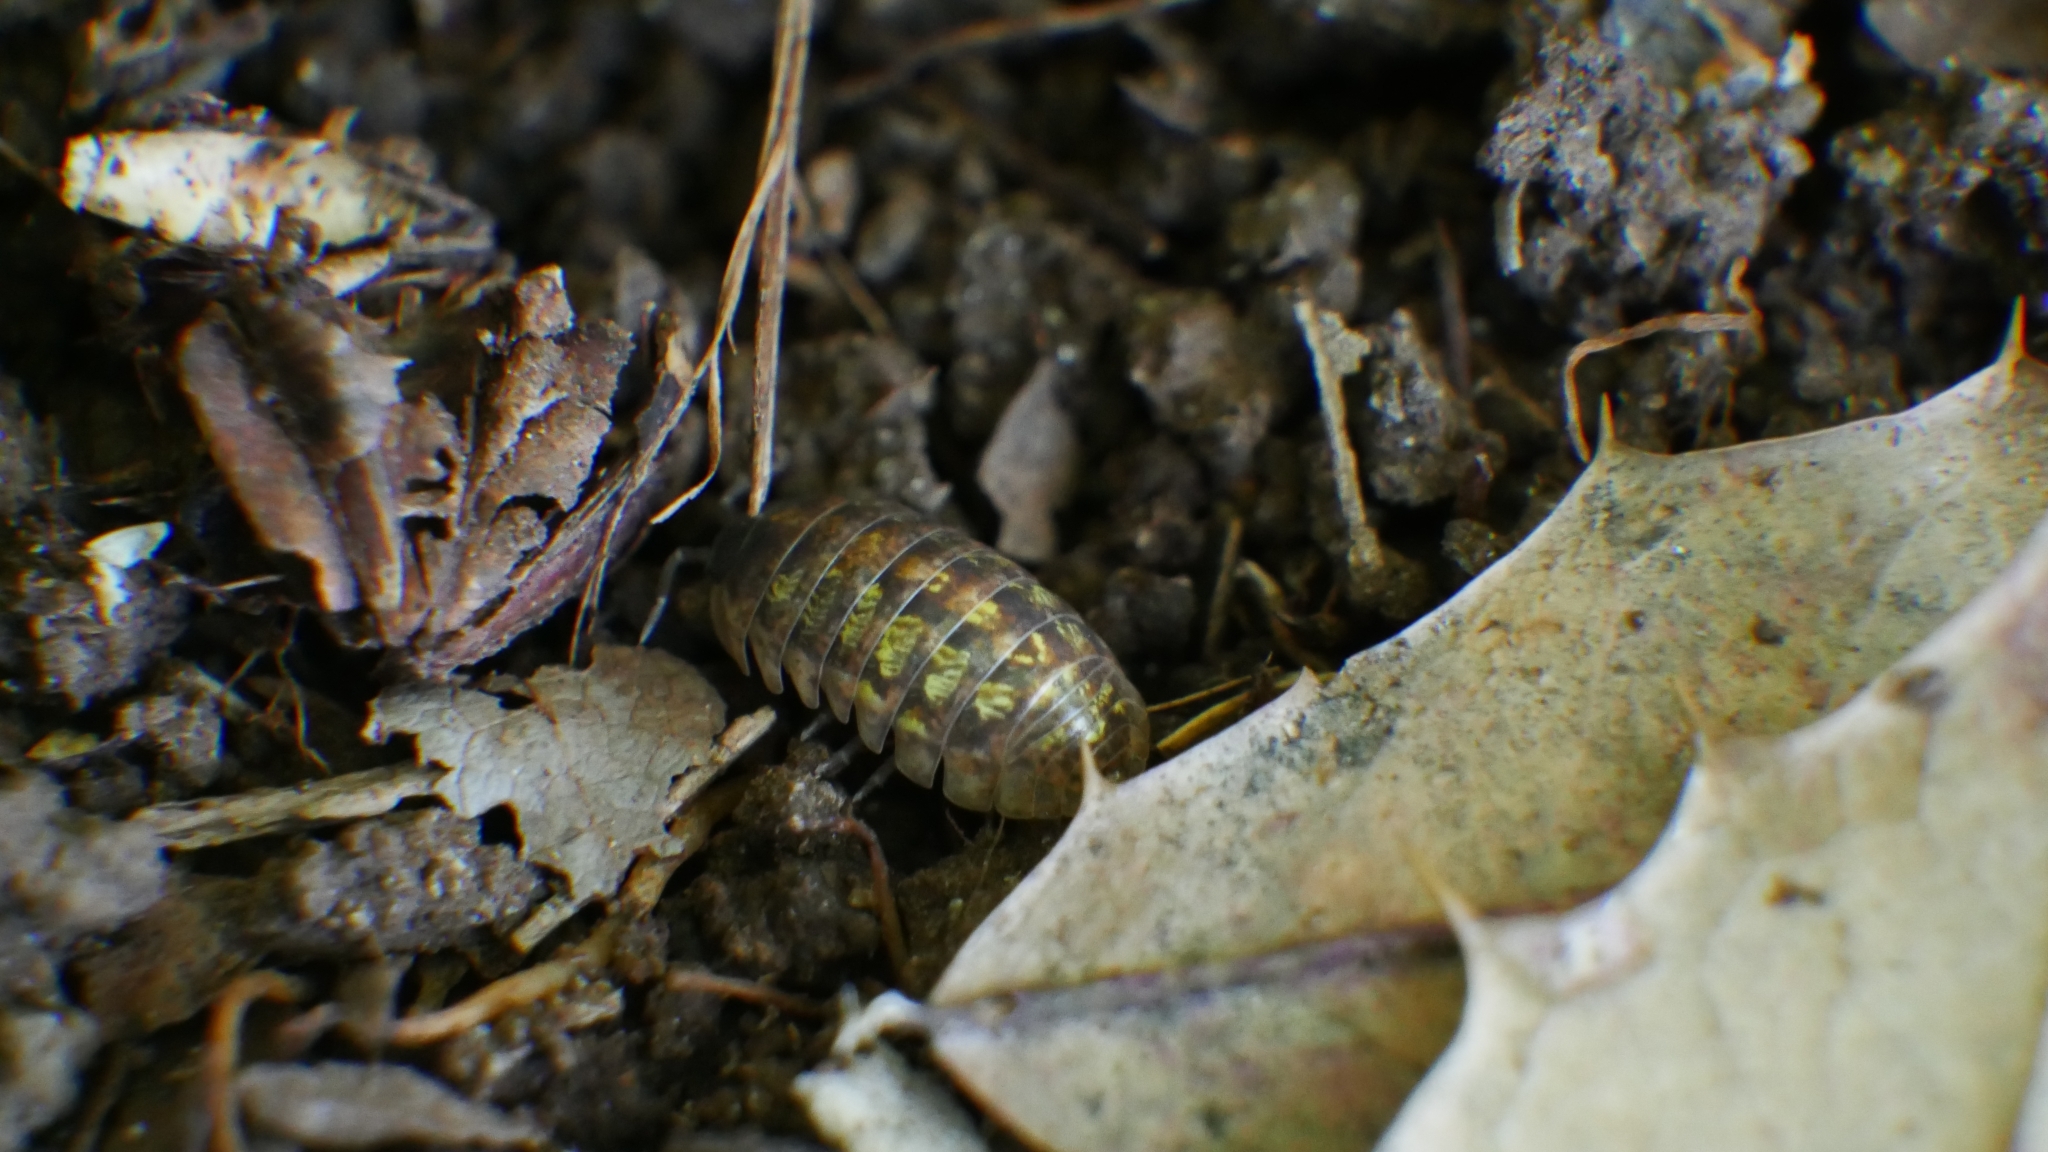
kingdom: Animalia
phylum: Arthropoda
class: Malacostraca
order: Isopoda
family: Armadillidiidae
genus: Armadillidium
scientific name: Armadillidium vulgare
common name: Common pill woodlouse
